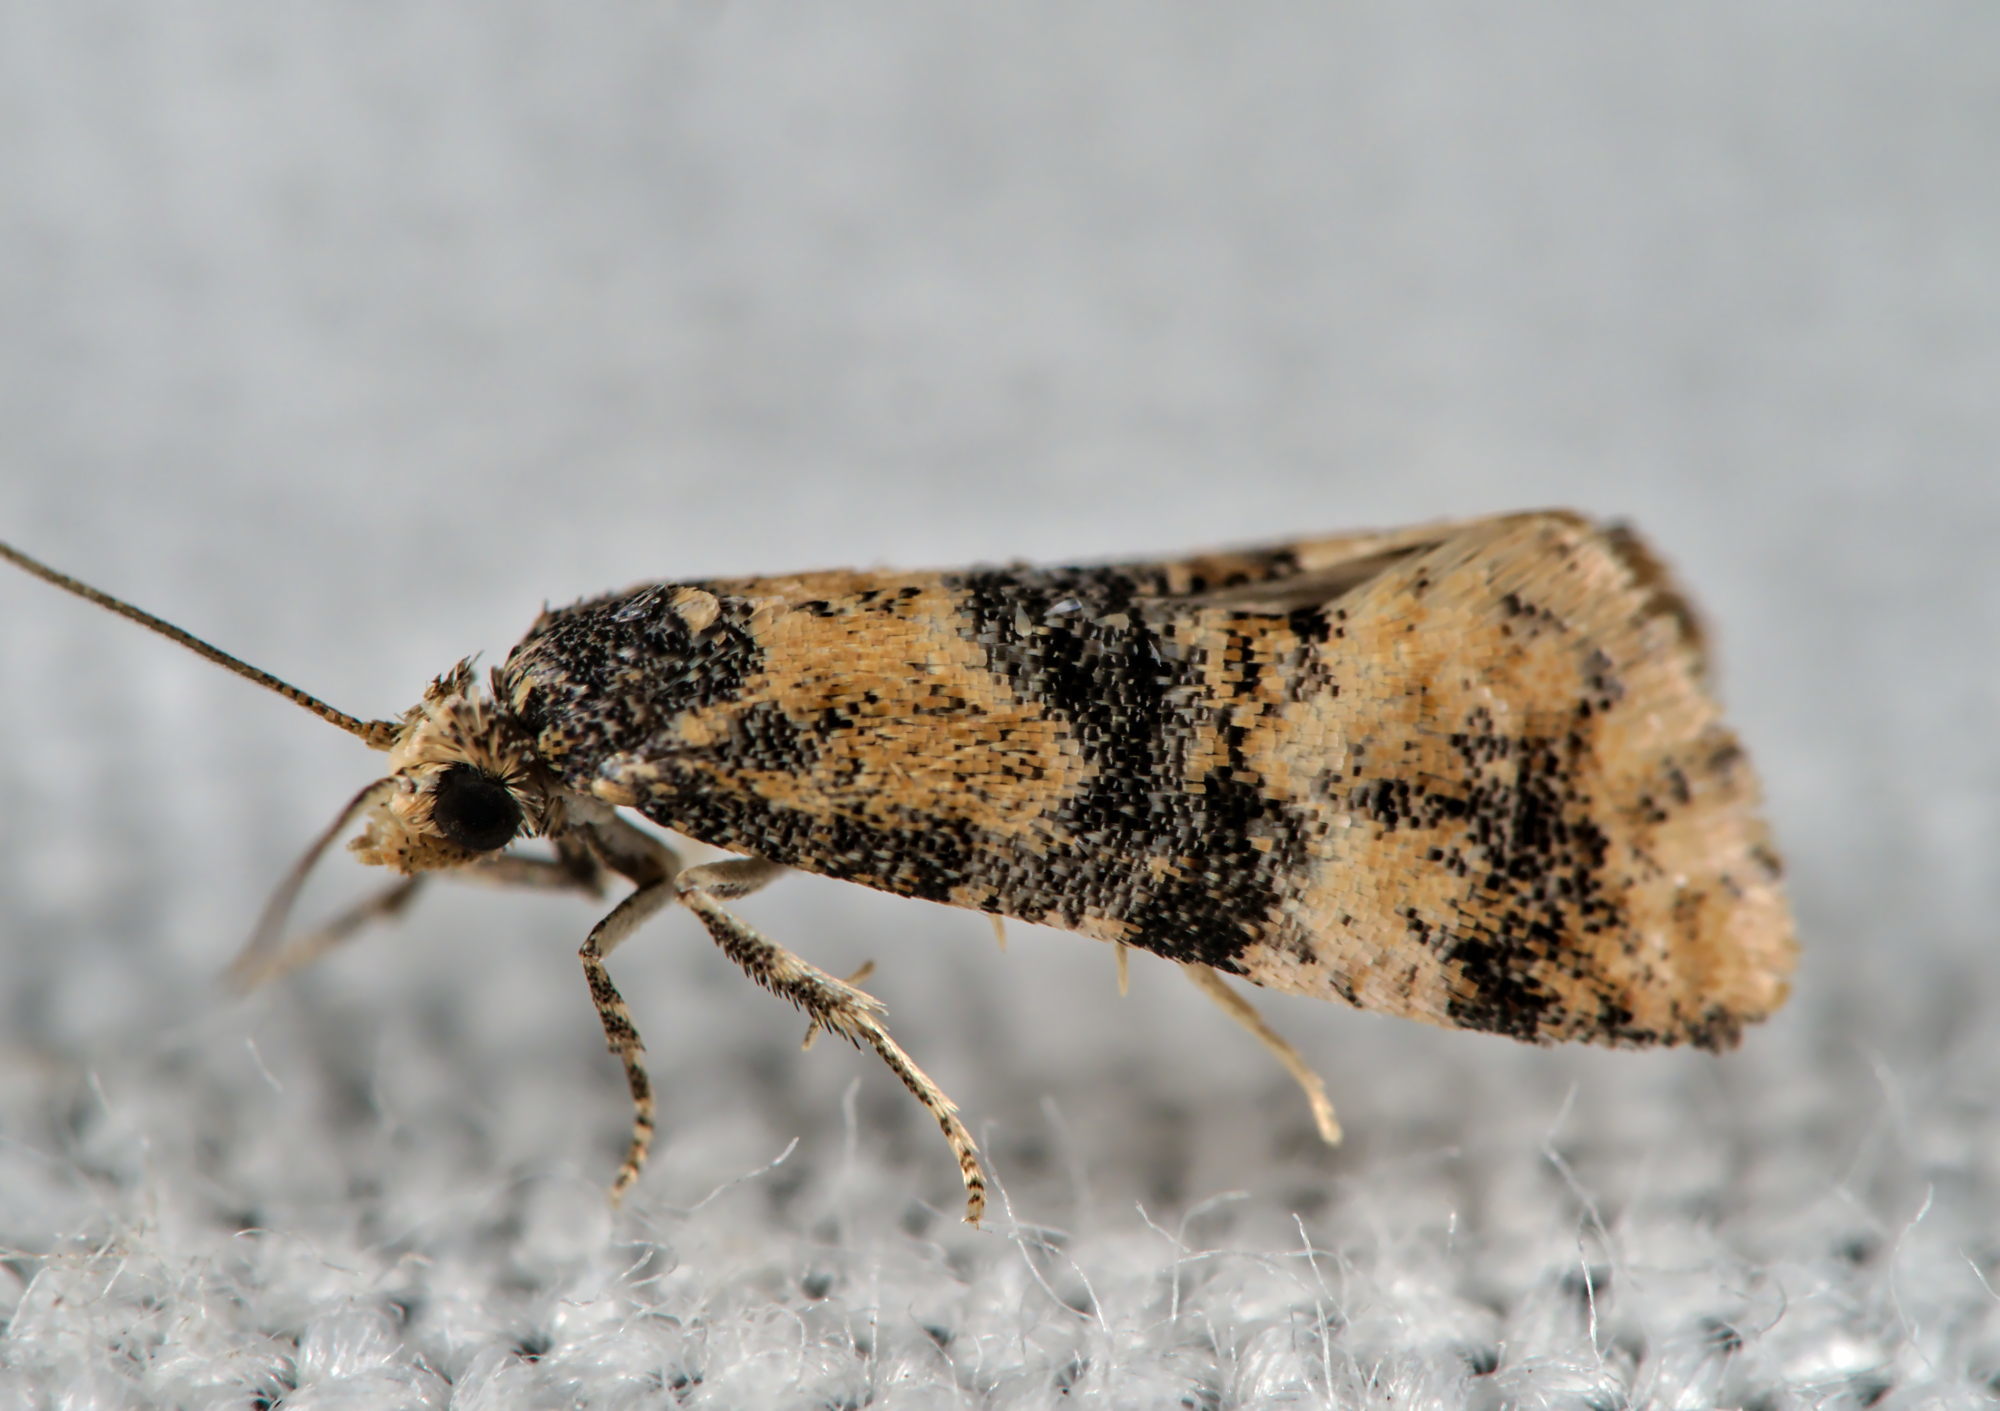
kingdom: Animalia
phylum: Arthropoda
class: Insecta
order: Lepidoptera
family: Tortricidae
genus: Thyraylia
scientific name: Thyraylia nana
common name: Birch conch
